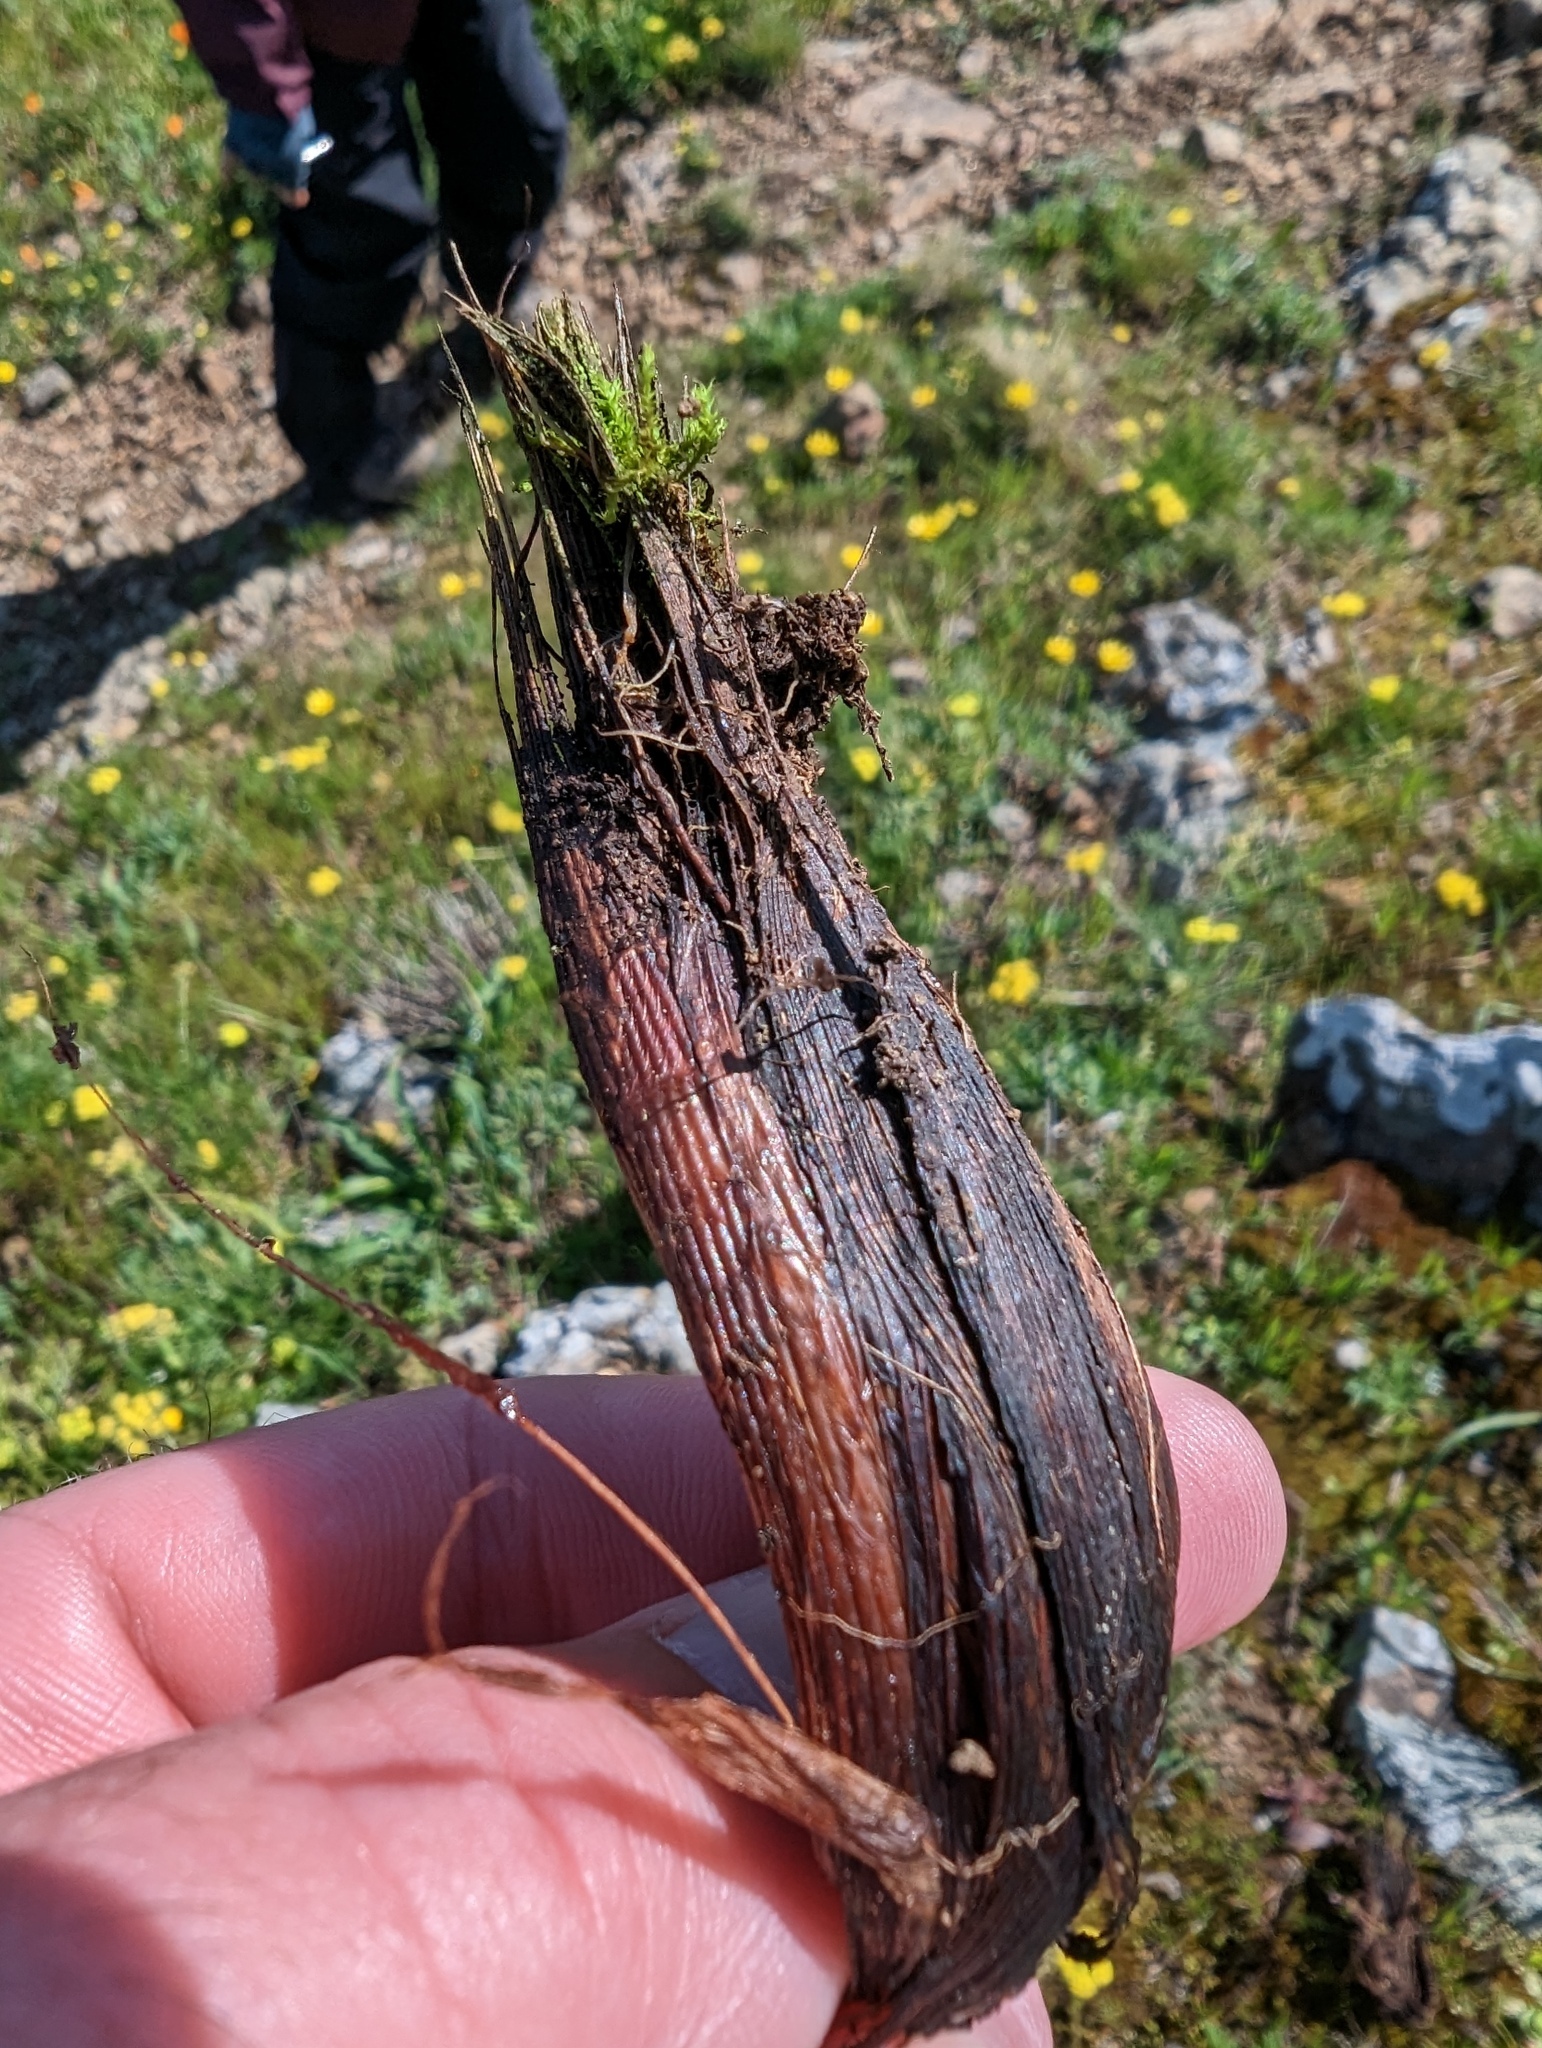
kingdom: Plantae
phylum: Tracheophyta
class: Liliopsida
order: Asparagales
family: Asparagaceae
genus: Chlorogalum
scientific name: Chlorogalum pomeridianum
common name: Amole
